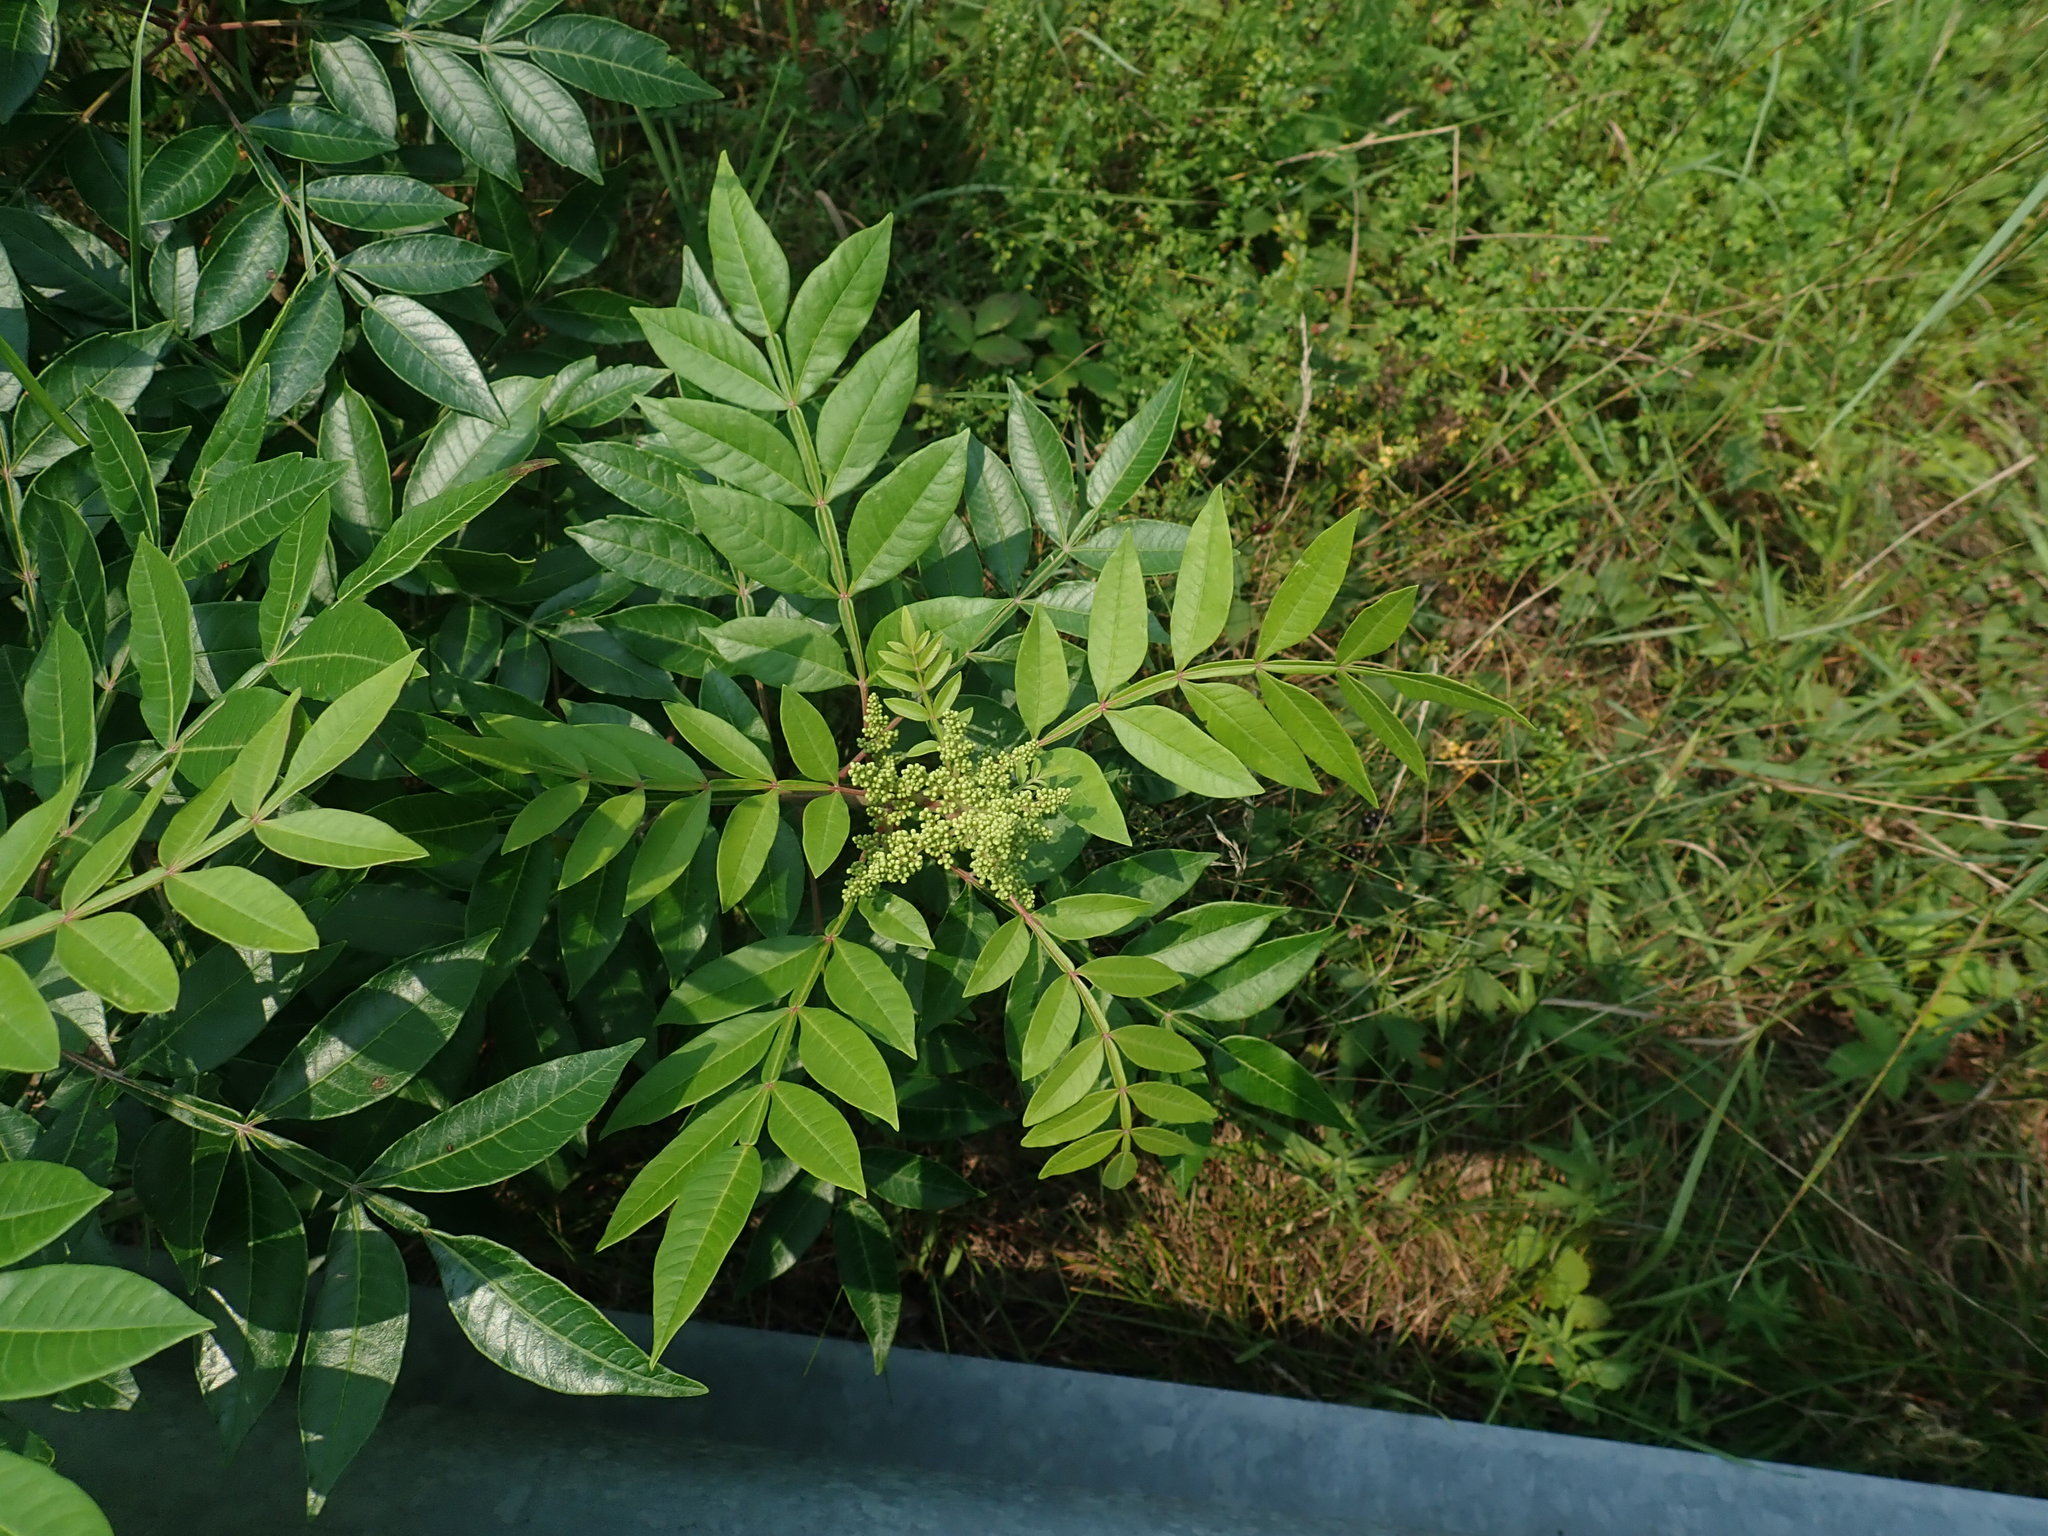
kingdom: Plantae
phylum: Tracheophyta
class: Magnoliopsida
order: Sapindales
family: Anacardiaceae
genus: Rhus
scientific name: Rhus copallina
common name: Shining sumac
